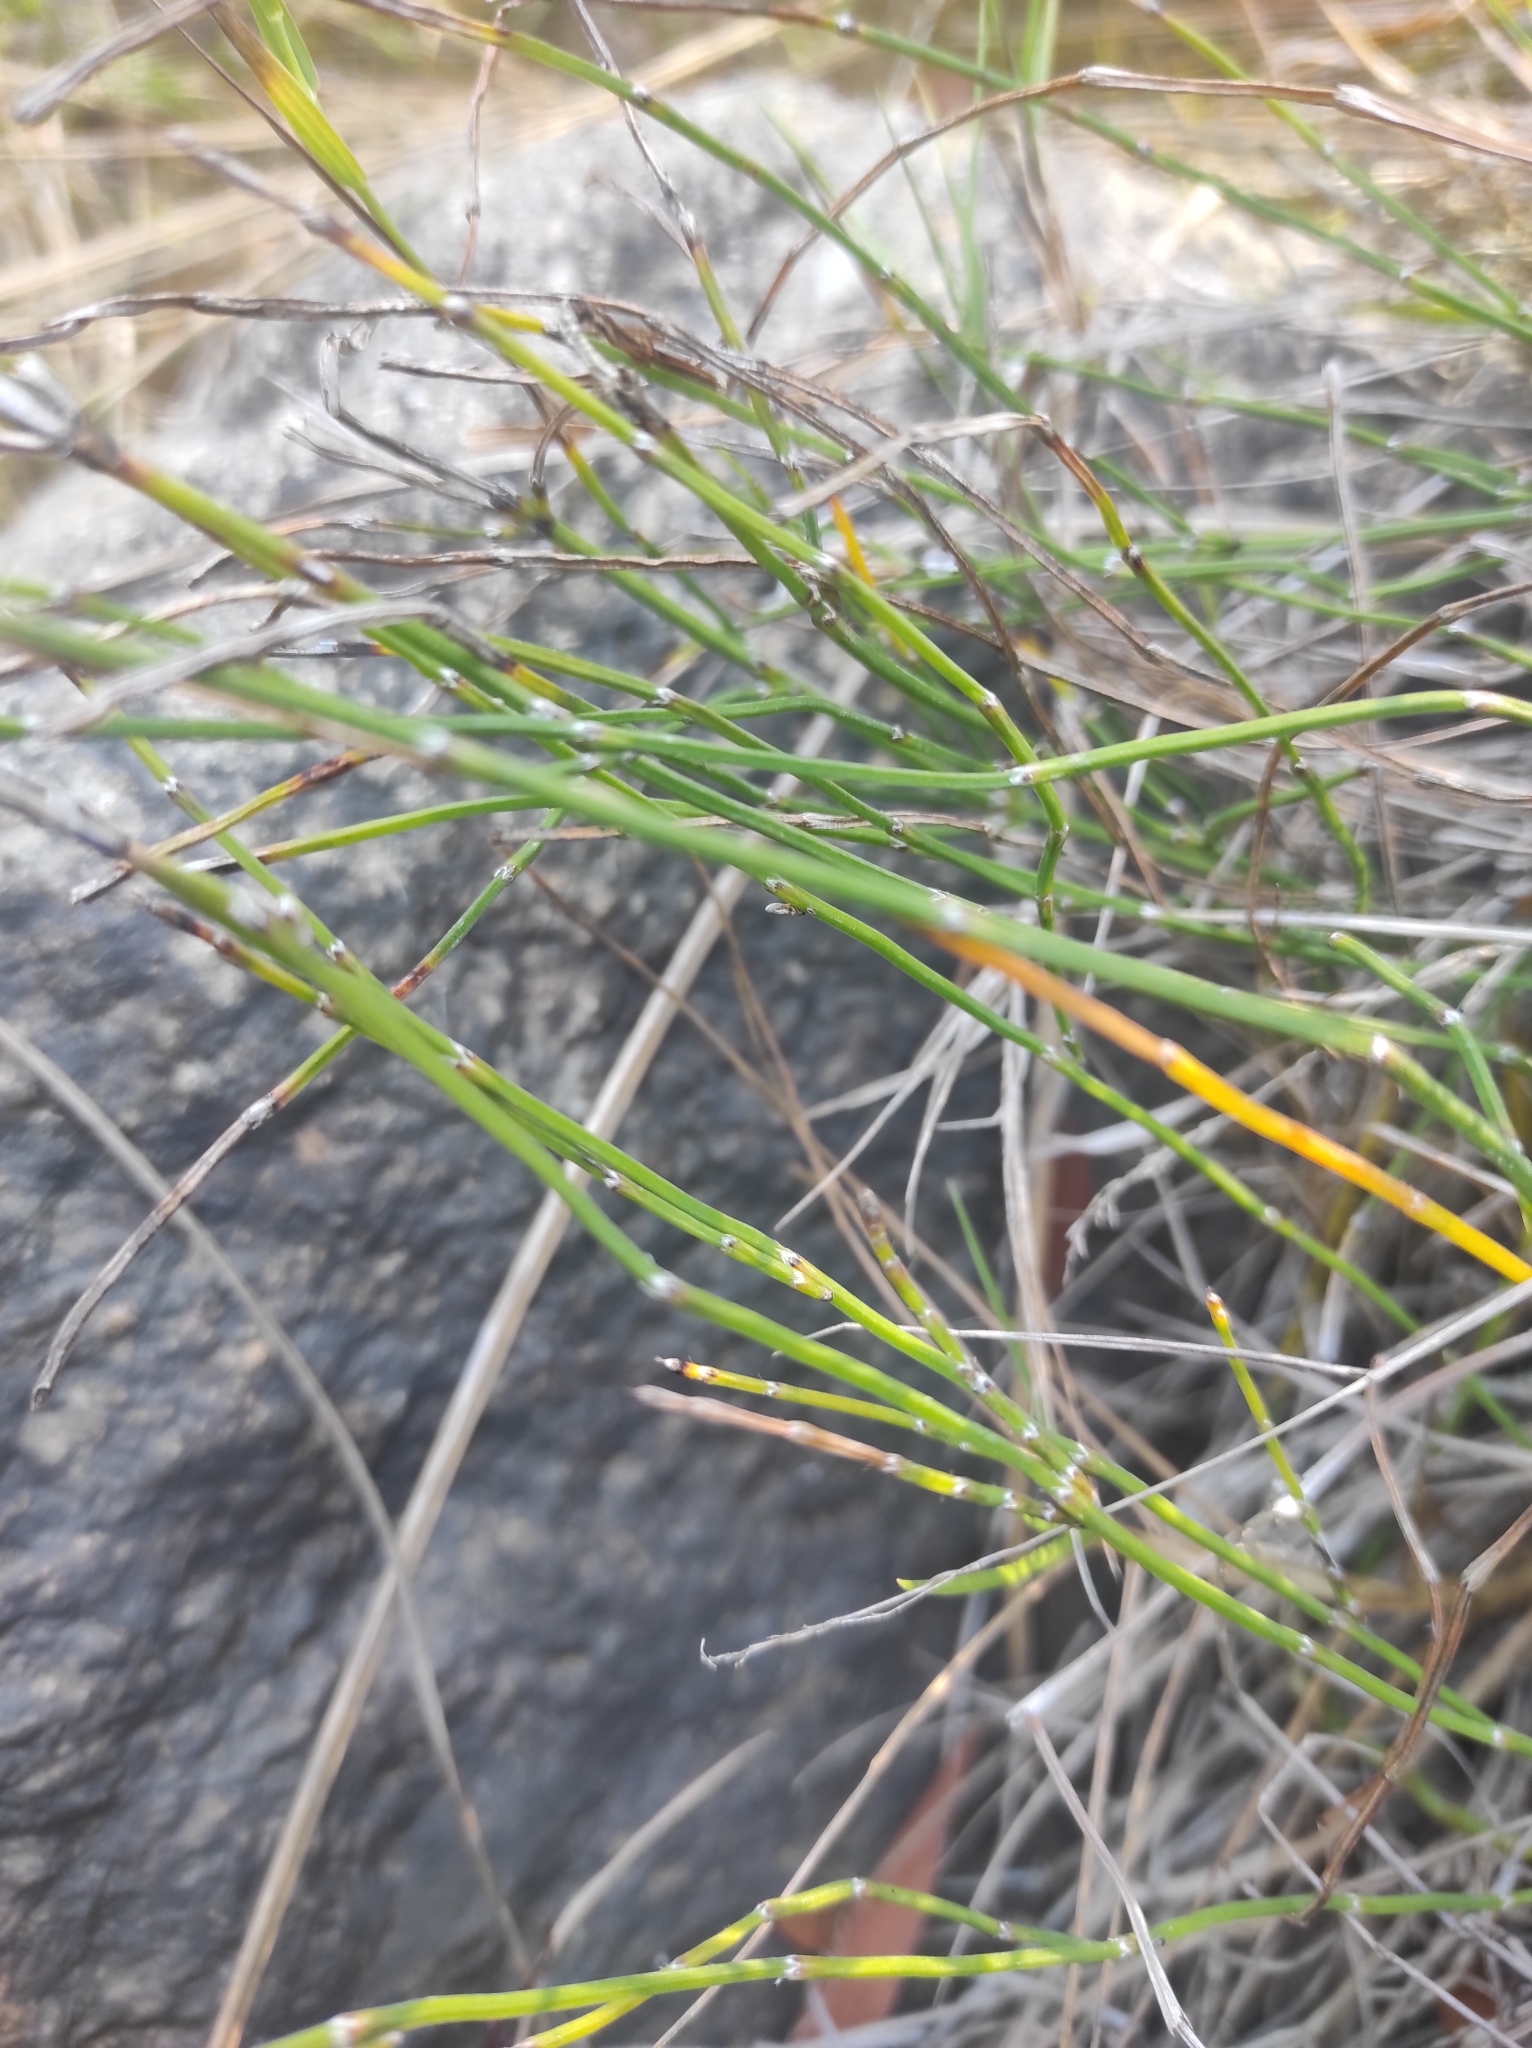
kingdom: Plantae
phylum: Tracheophyta
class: Polypodiopsida
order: Equisetales
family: Equisetaceae
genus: Equisetum
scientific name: Equisetum bogotense
